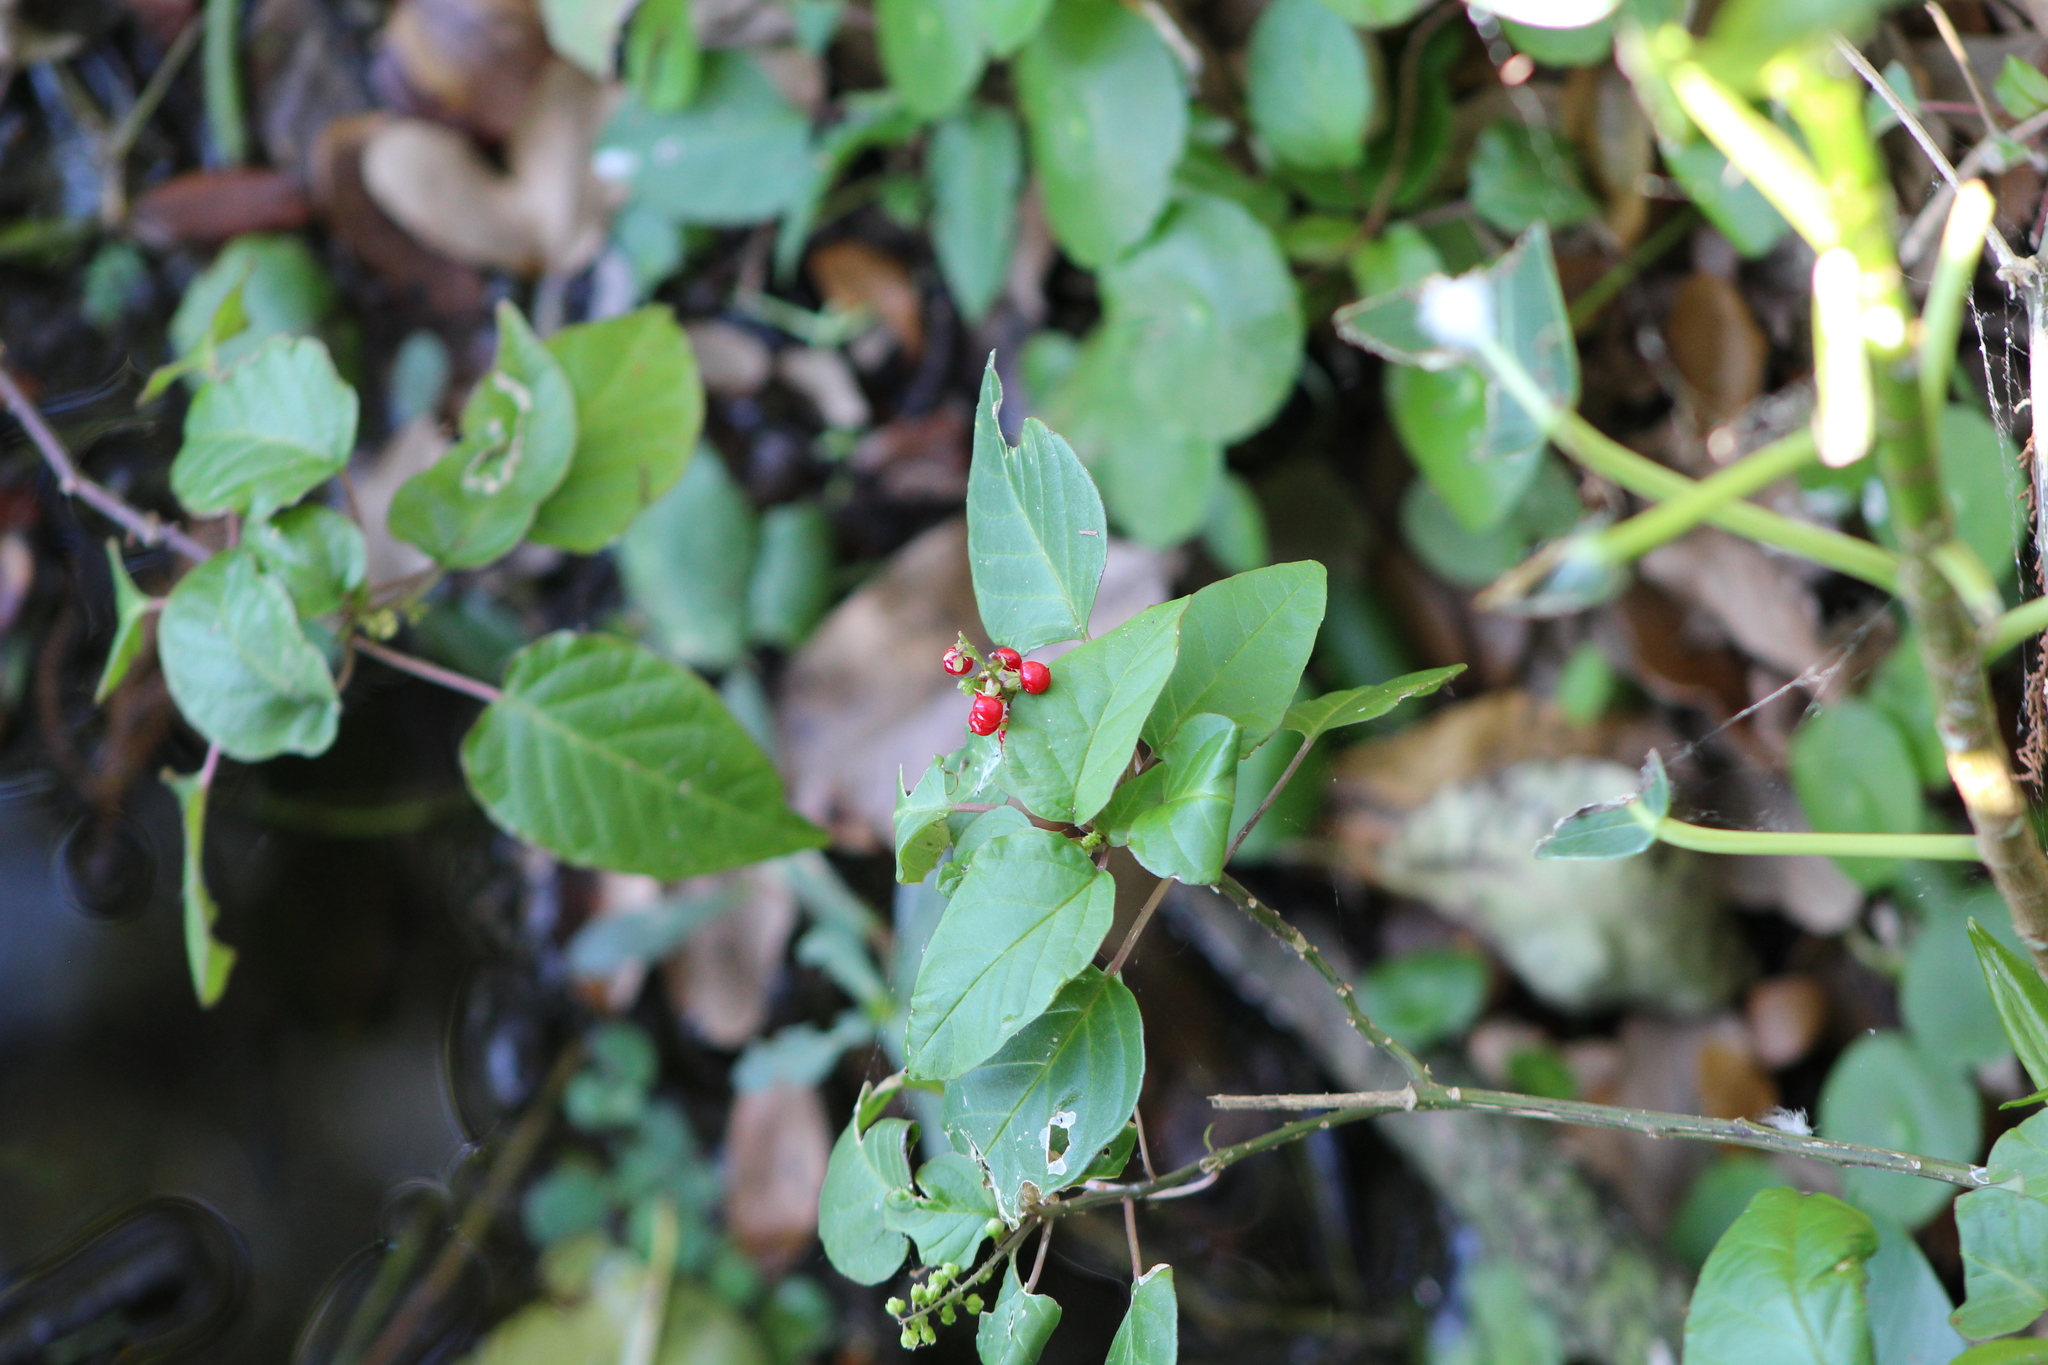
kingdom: Plantae
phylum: Tracheophyta
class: Magnoliopsida
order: Caryophyllales
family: Phytolaccaceae
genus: Rivina
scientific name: Rivina humilis
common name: Rougeplant
